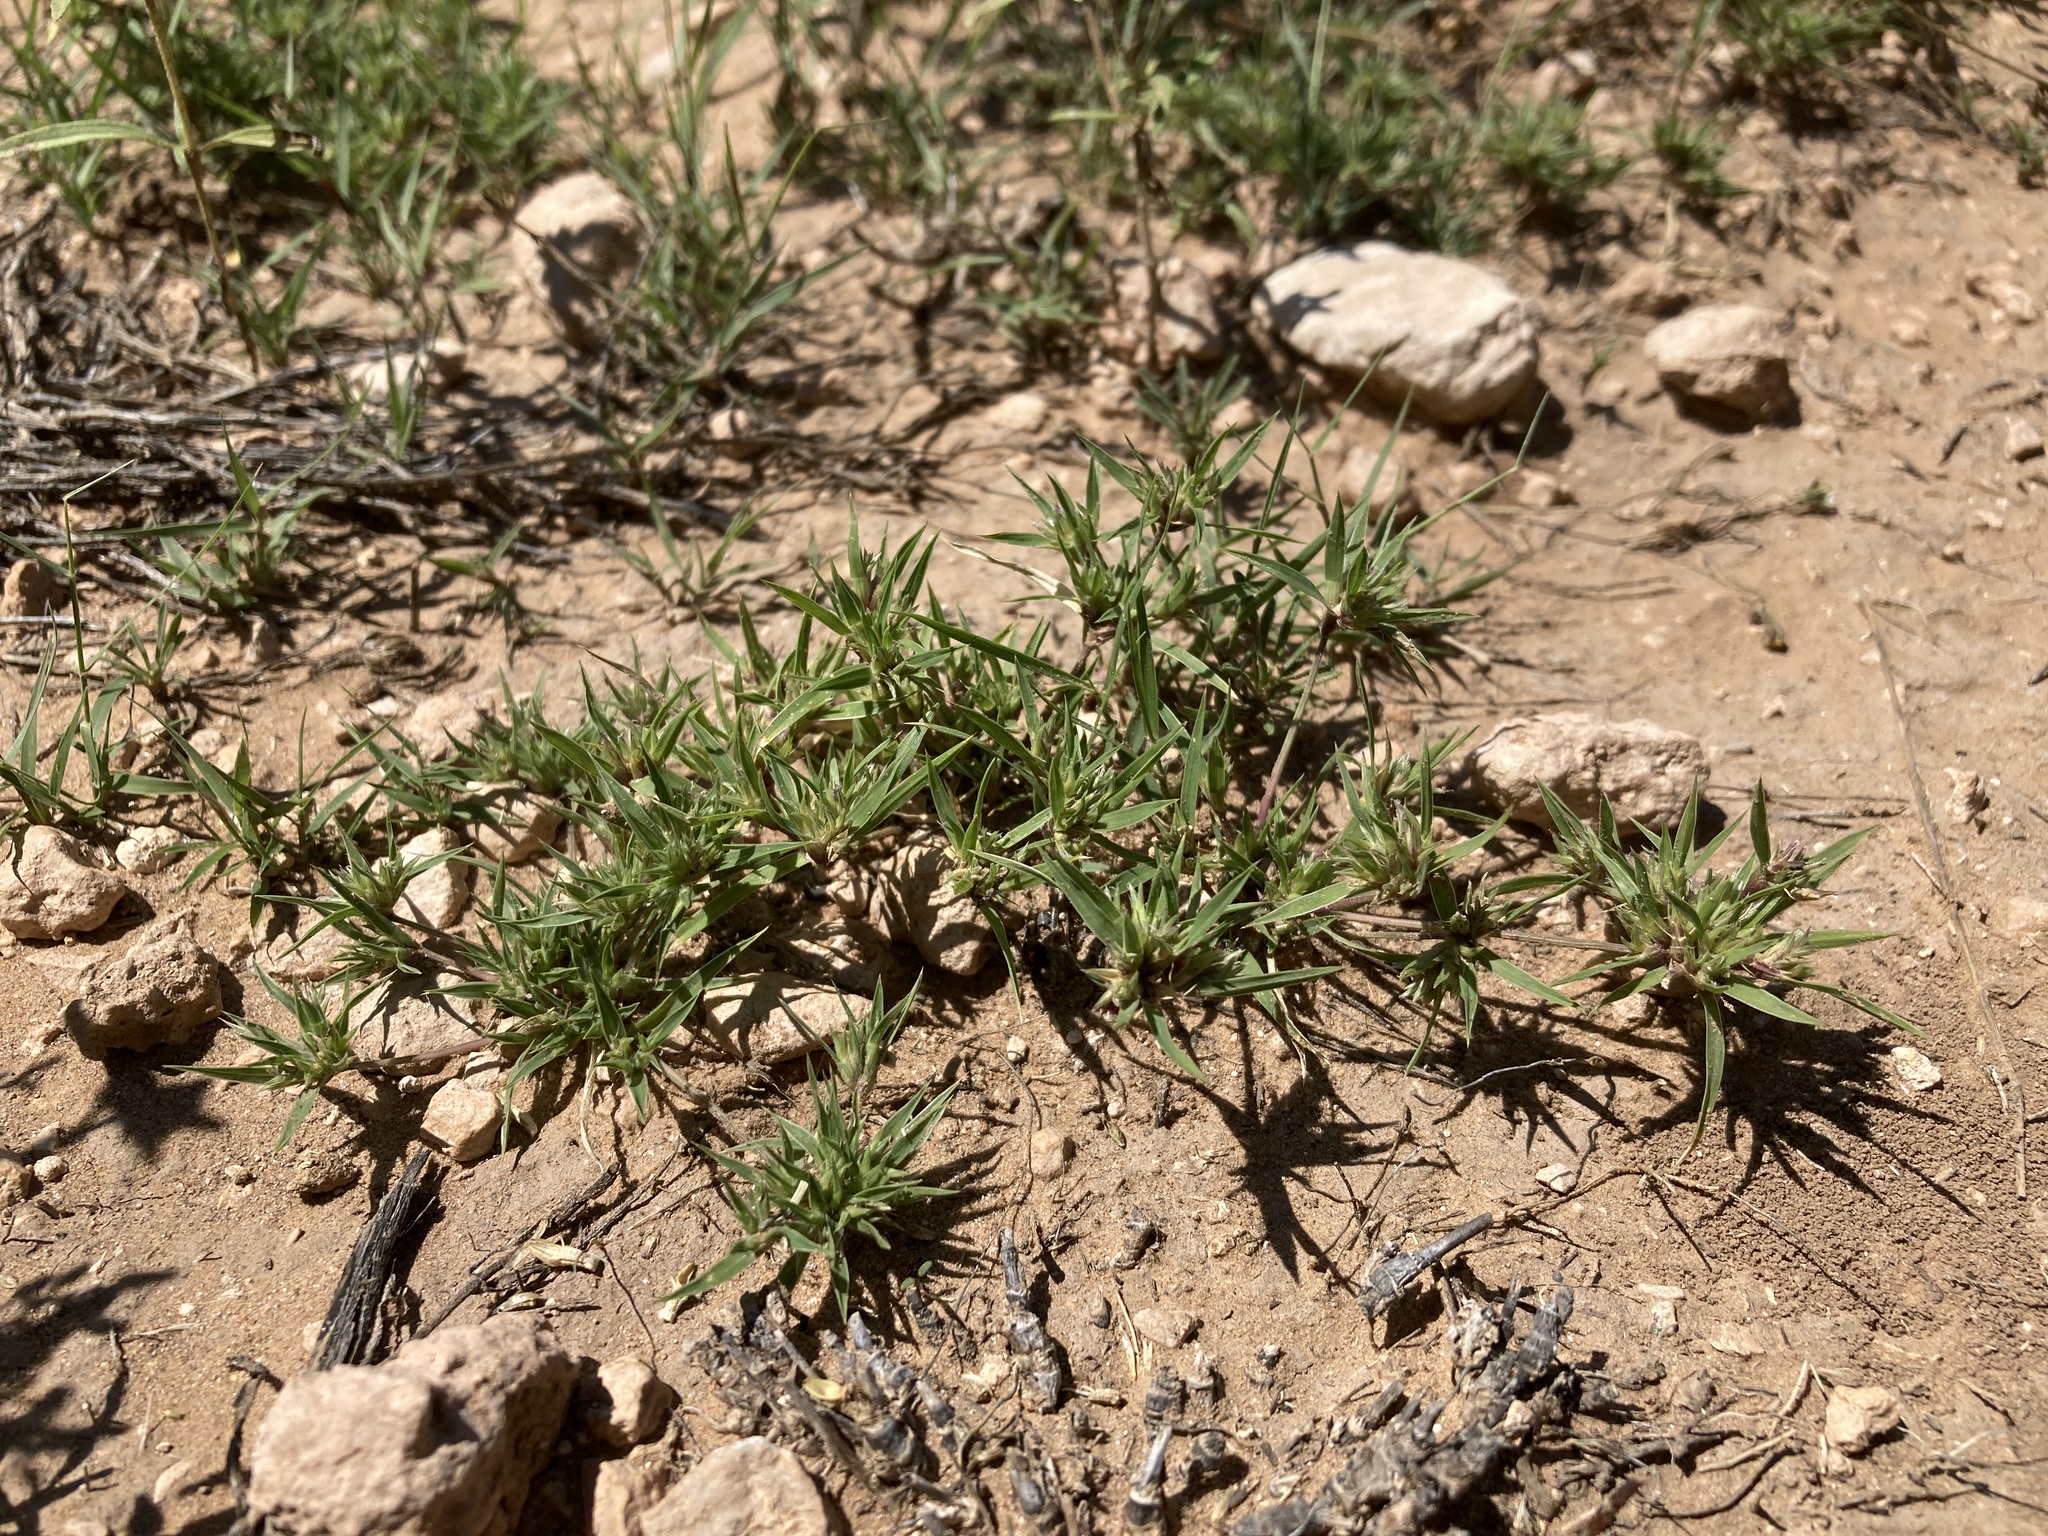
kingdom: Plantae
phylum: Tracheophyta
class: Liliopsida
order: Poales
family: Poaceae
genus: Munroa
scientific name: Munroa squarrosa
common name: False buffalo grass
